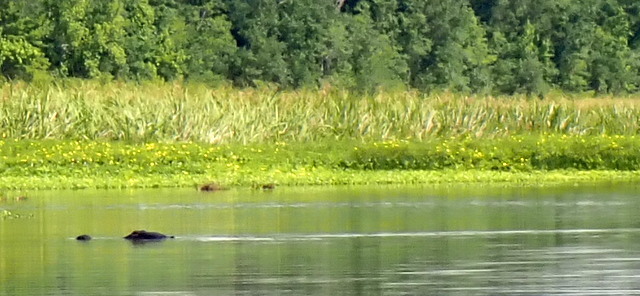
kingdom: Animalia
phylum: Chordata
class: Crocodylia
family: Alligatoridae
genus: Alligator
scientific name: Alligator mississippiensis
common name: American alligator
